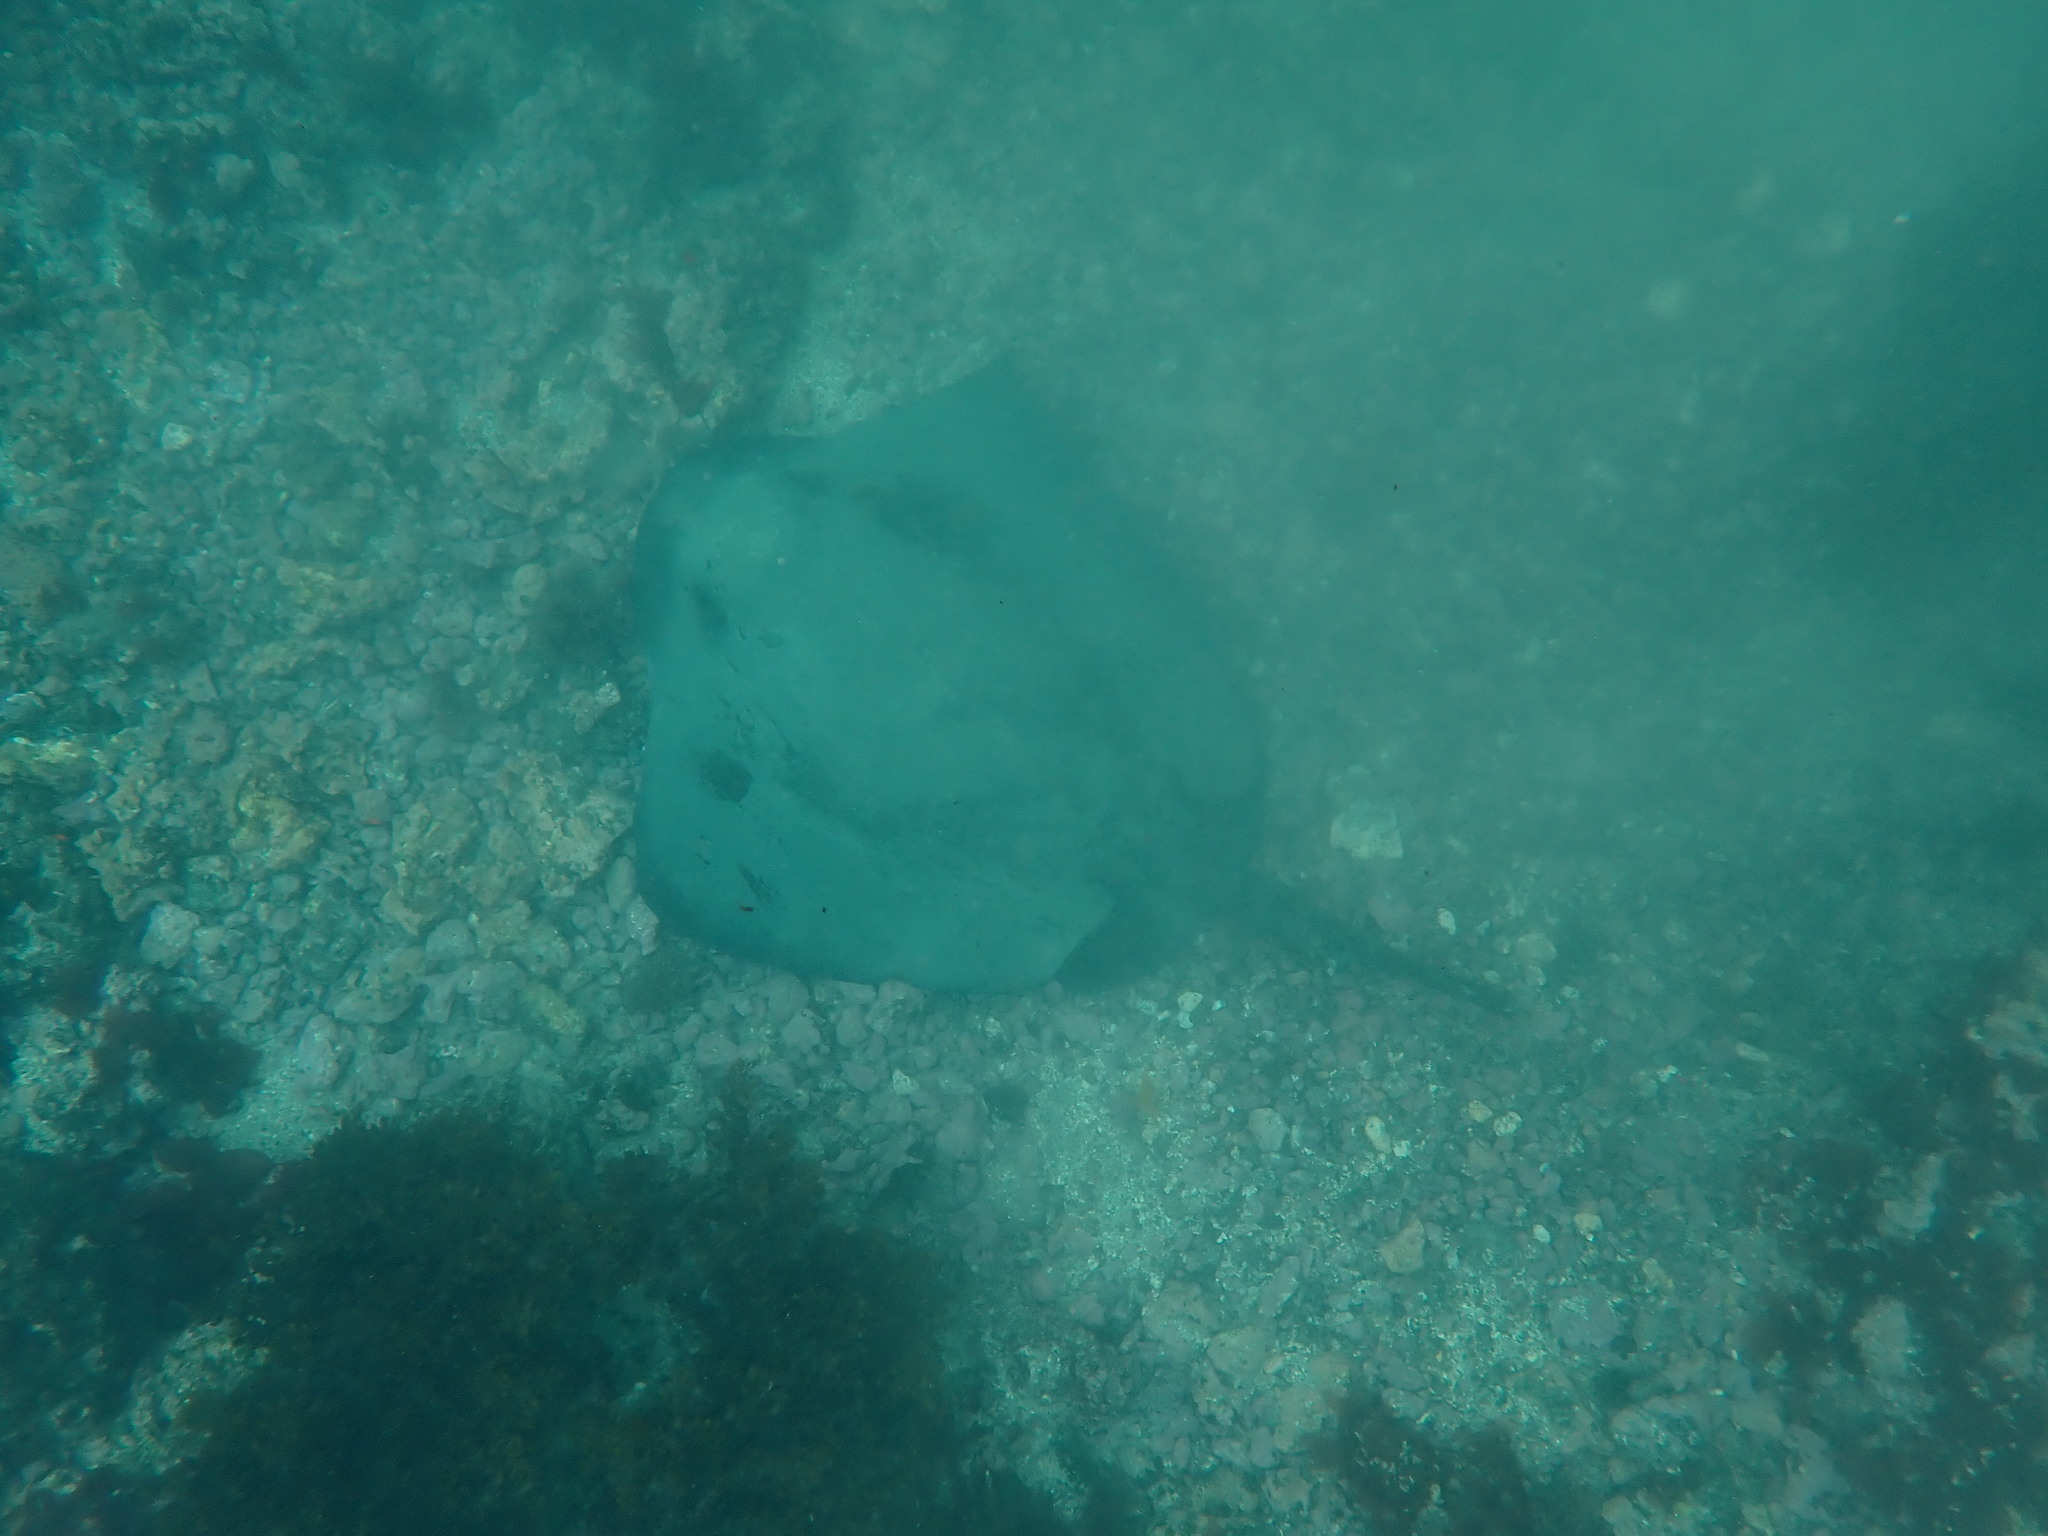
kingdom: Animalia
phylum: Chordata
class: Elasmobranchii
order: Myliobatiformes
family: Dasyatidae
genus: Hypanus
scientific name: Hypanus dipterurus
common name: Diamond stingray
